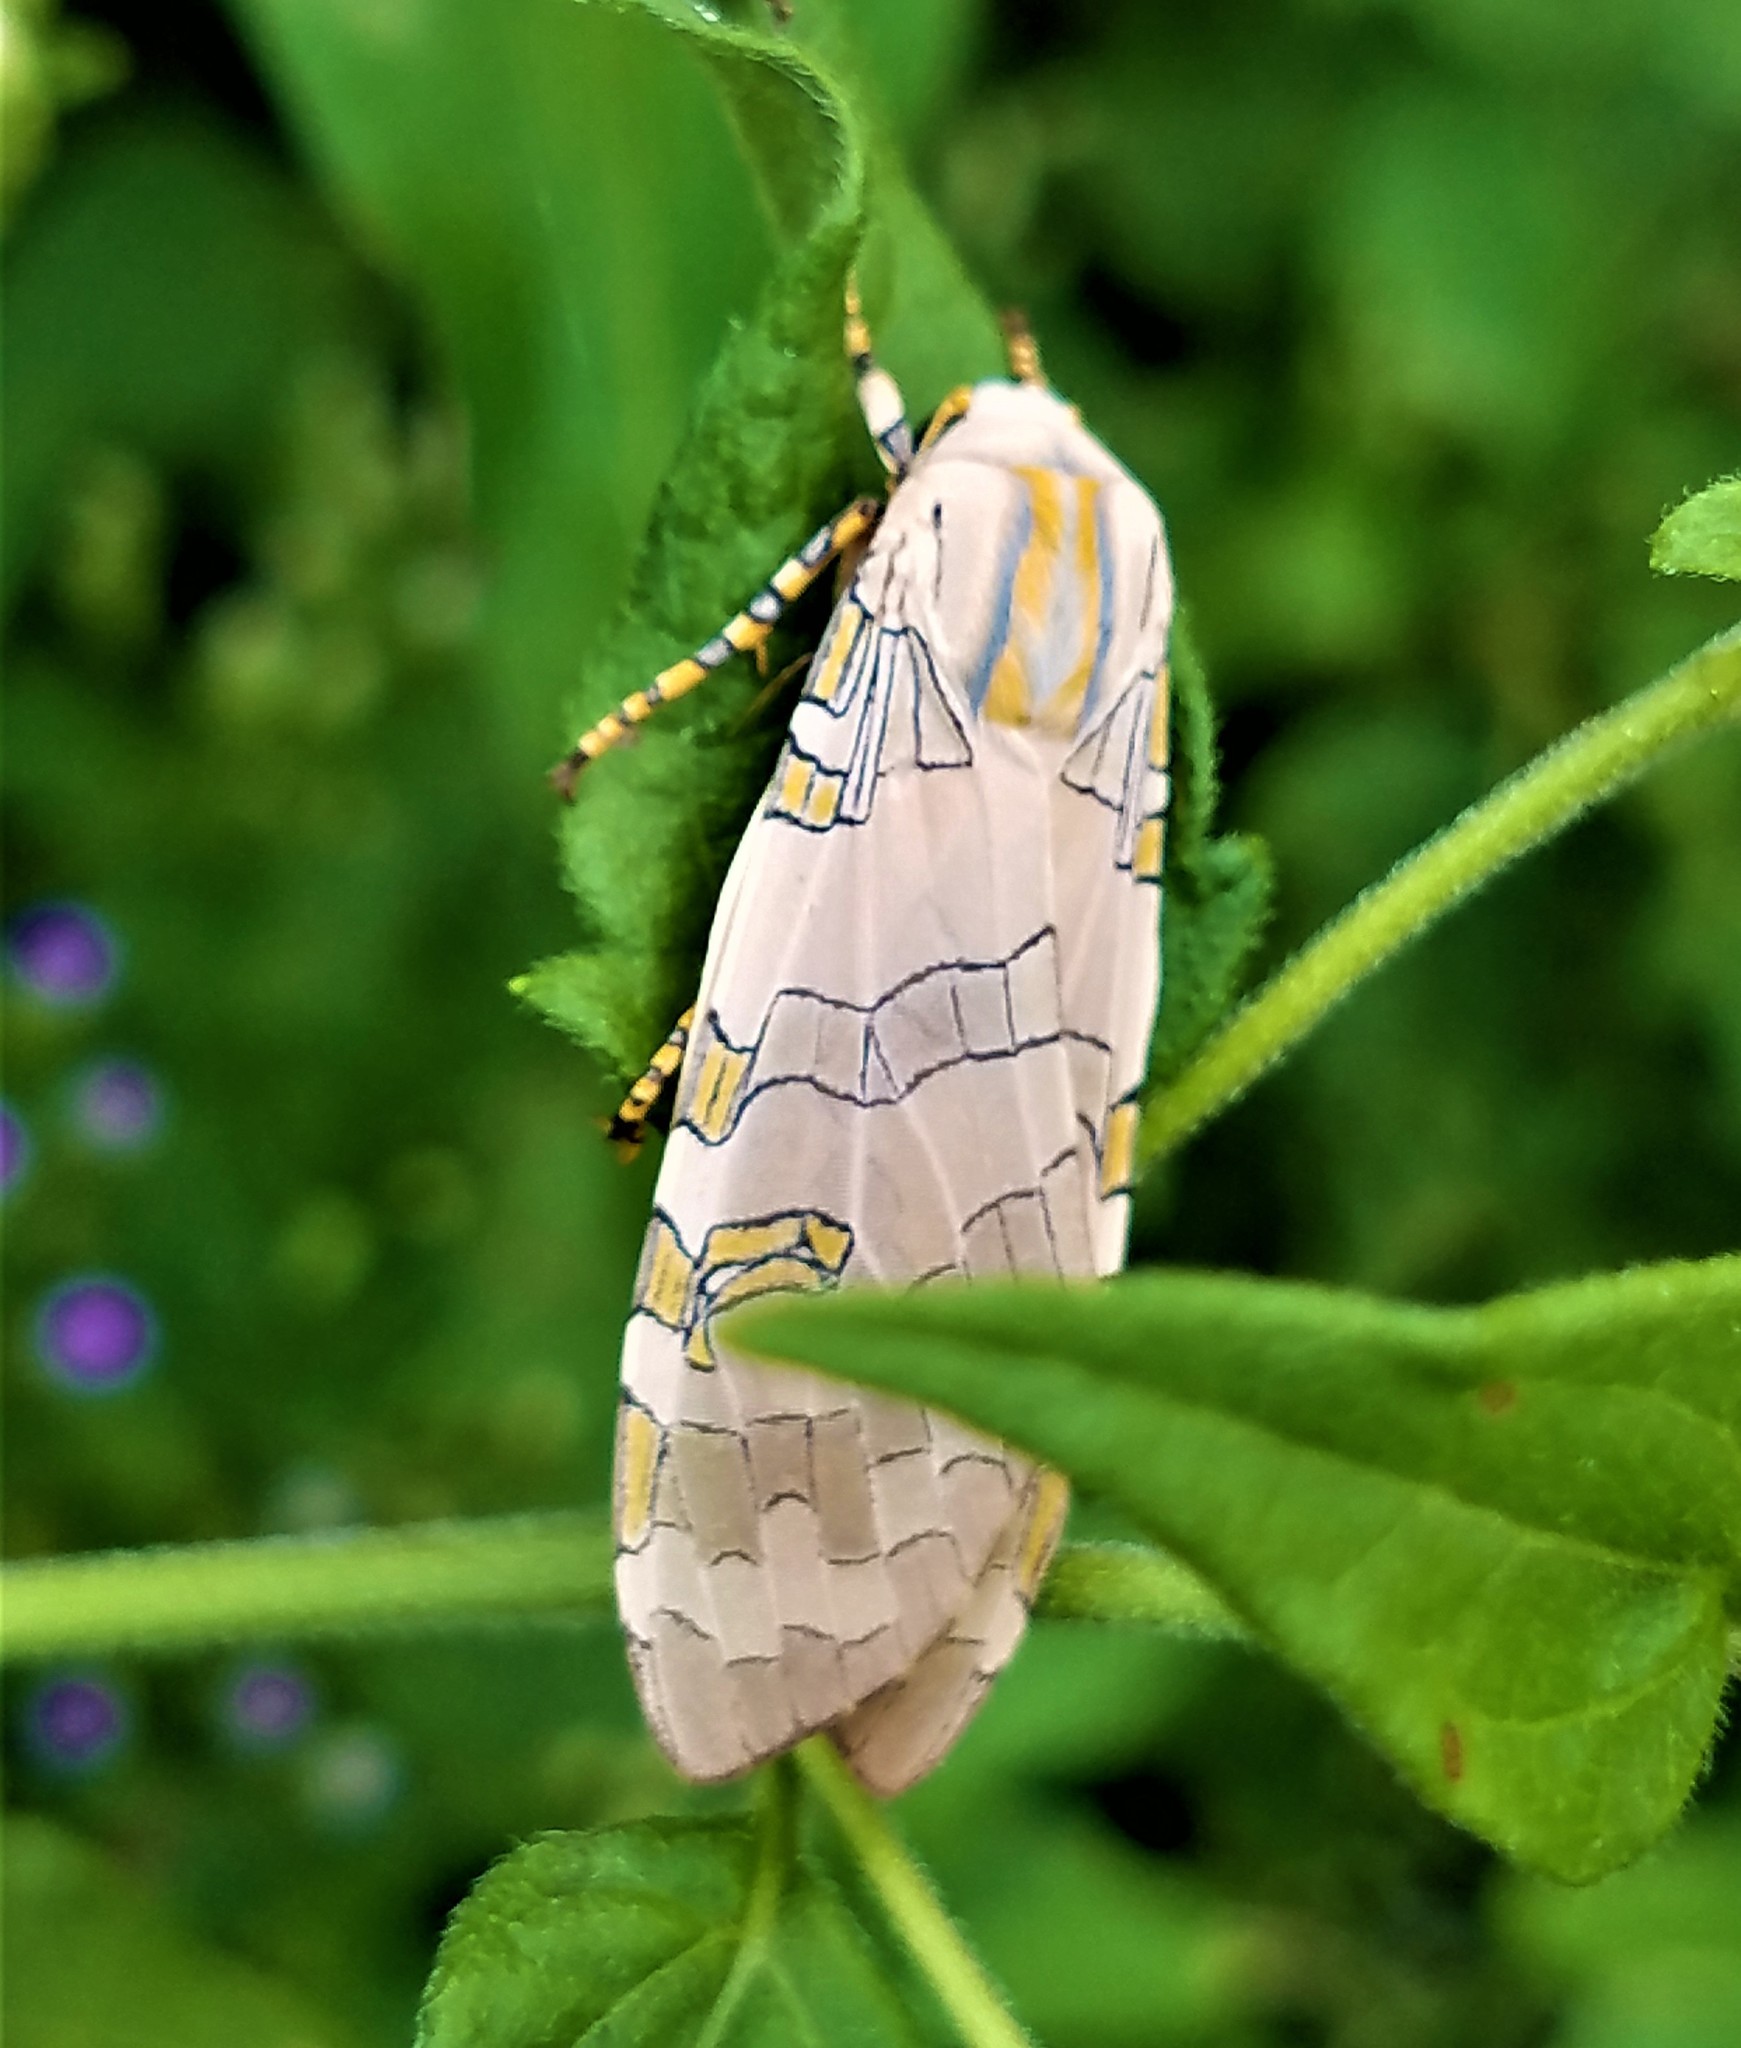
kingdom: Animalia
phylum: Arthropoda
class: Insecta
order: Lepidoptera
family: Erebidae
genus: Halysidota
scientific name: Halysidota schausi
